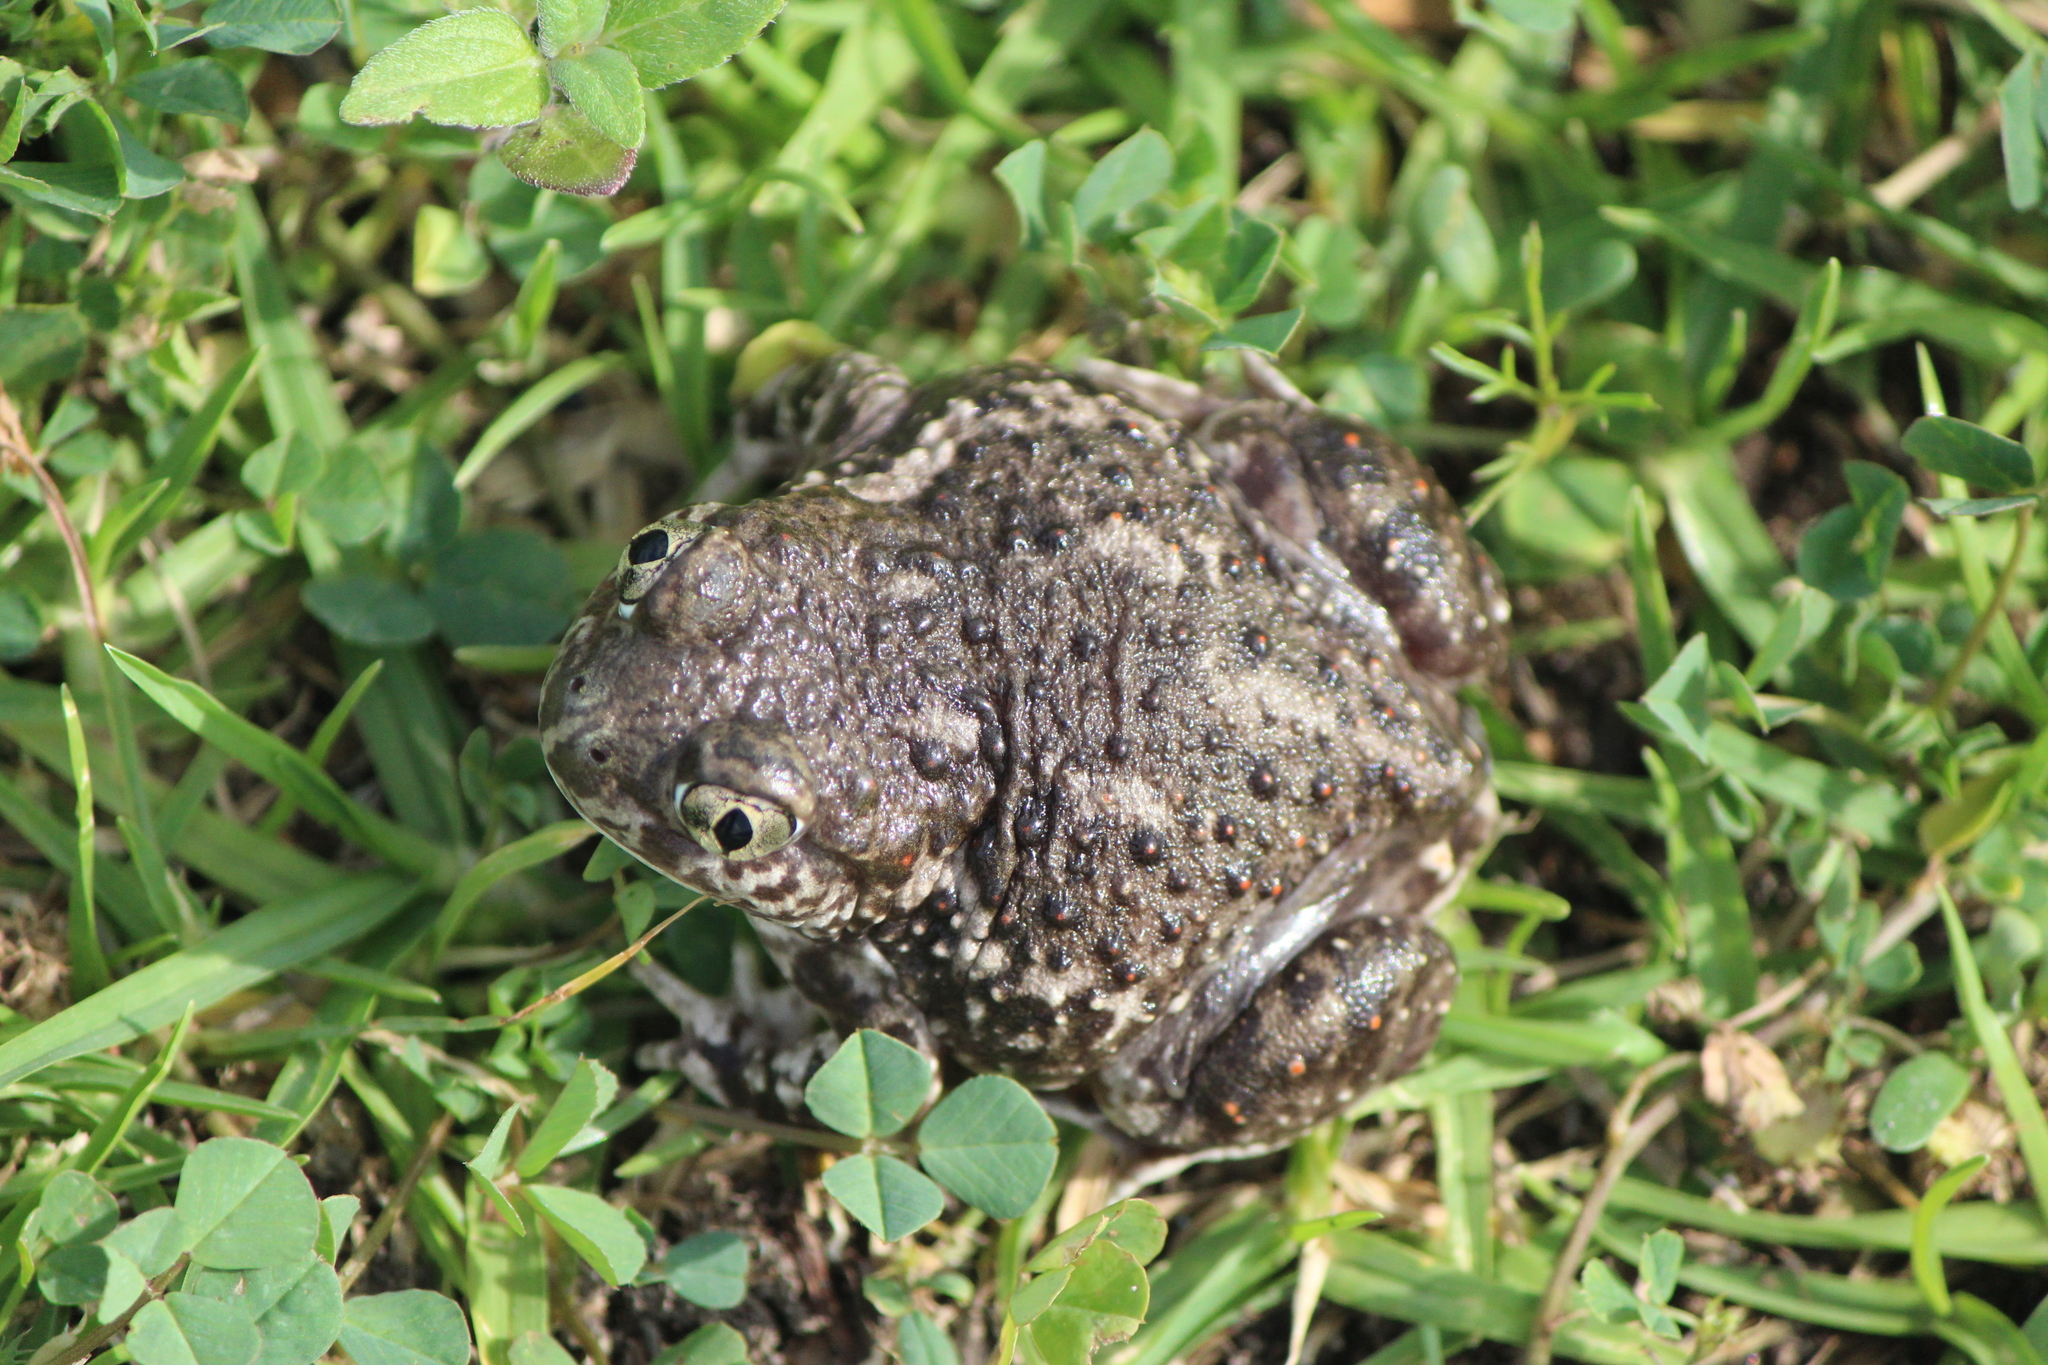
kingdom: Animalia
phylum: Chordata
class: Amphibia
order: Anura
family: Scaphiopodidae
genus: Spea
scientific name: Spea multiplicata
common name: Mexican spadefoot
